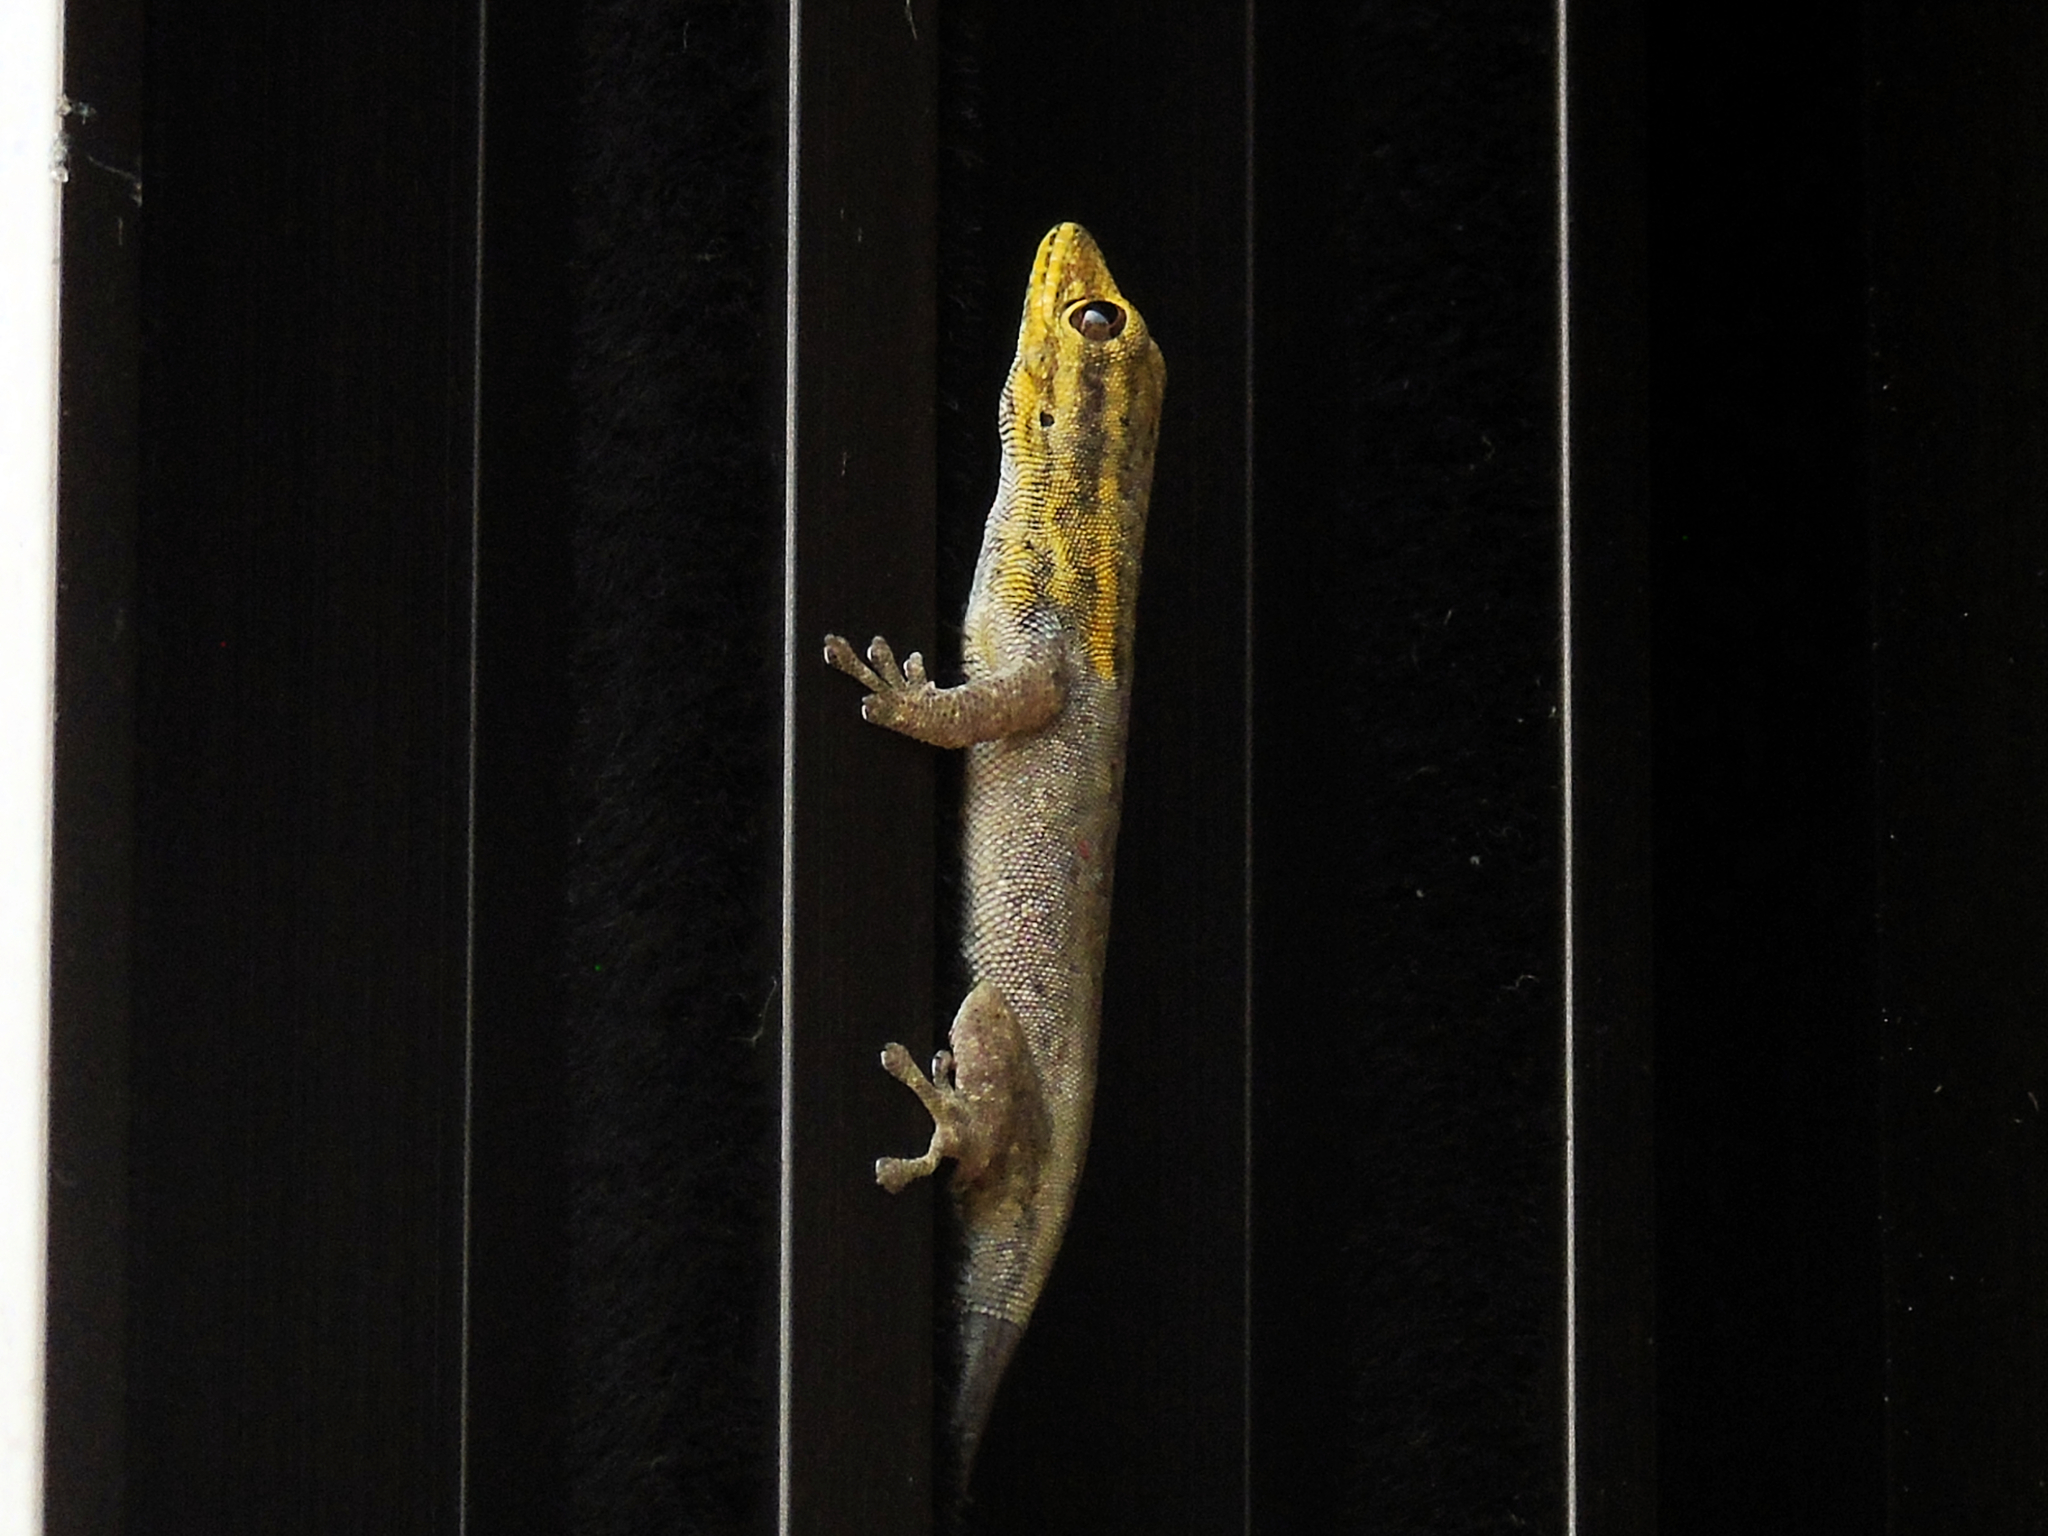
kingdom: Animalia
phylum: Chordata
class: Squamata
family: Gekkonidae
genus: Lygodactylus
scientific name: Lygodactylus picturatus
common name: Painted dwarf gecko
